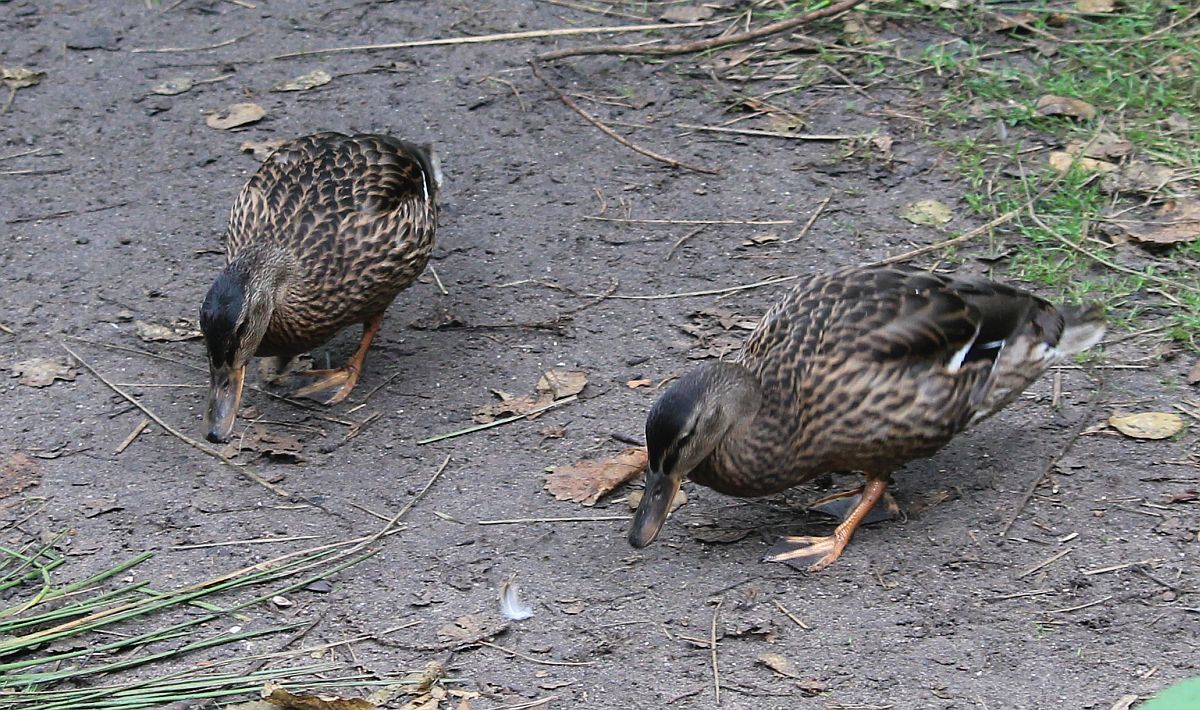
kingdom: Animalia
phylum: Chordata
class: Aves
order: Anseriformes
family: Anatidae
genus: Anas
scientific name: Anas platyrhynchos
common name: Mallard
